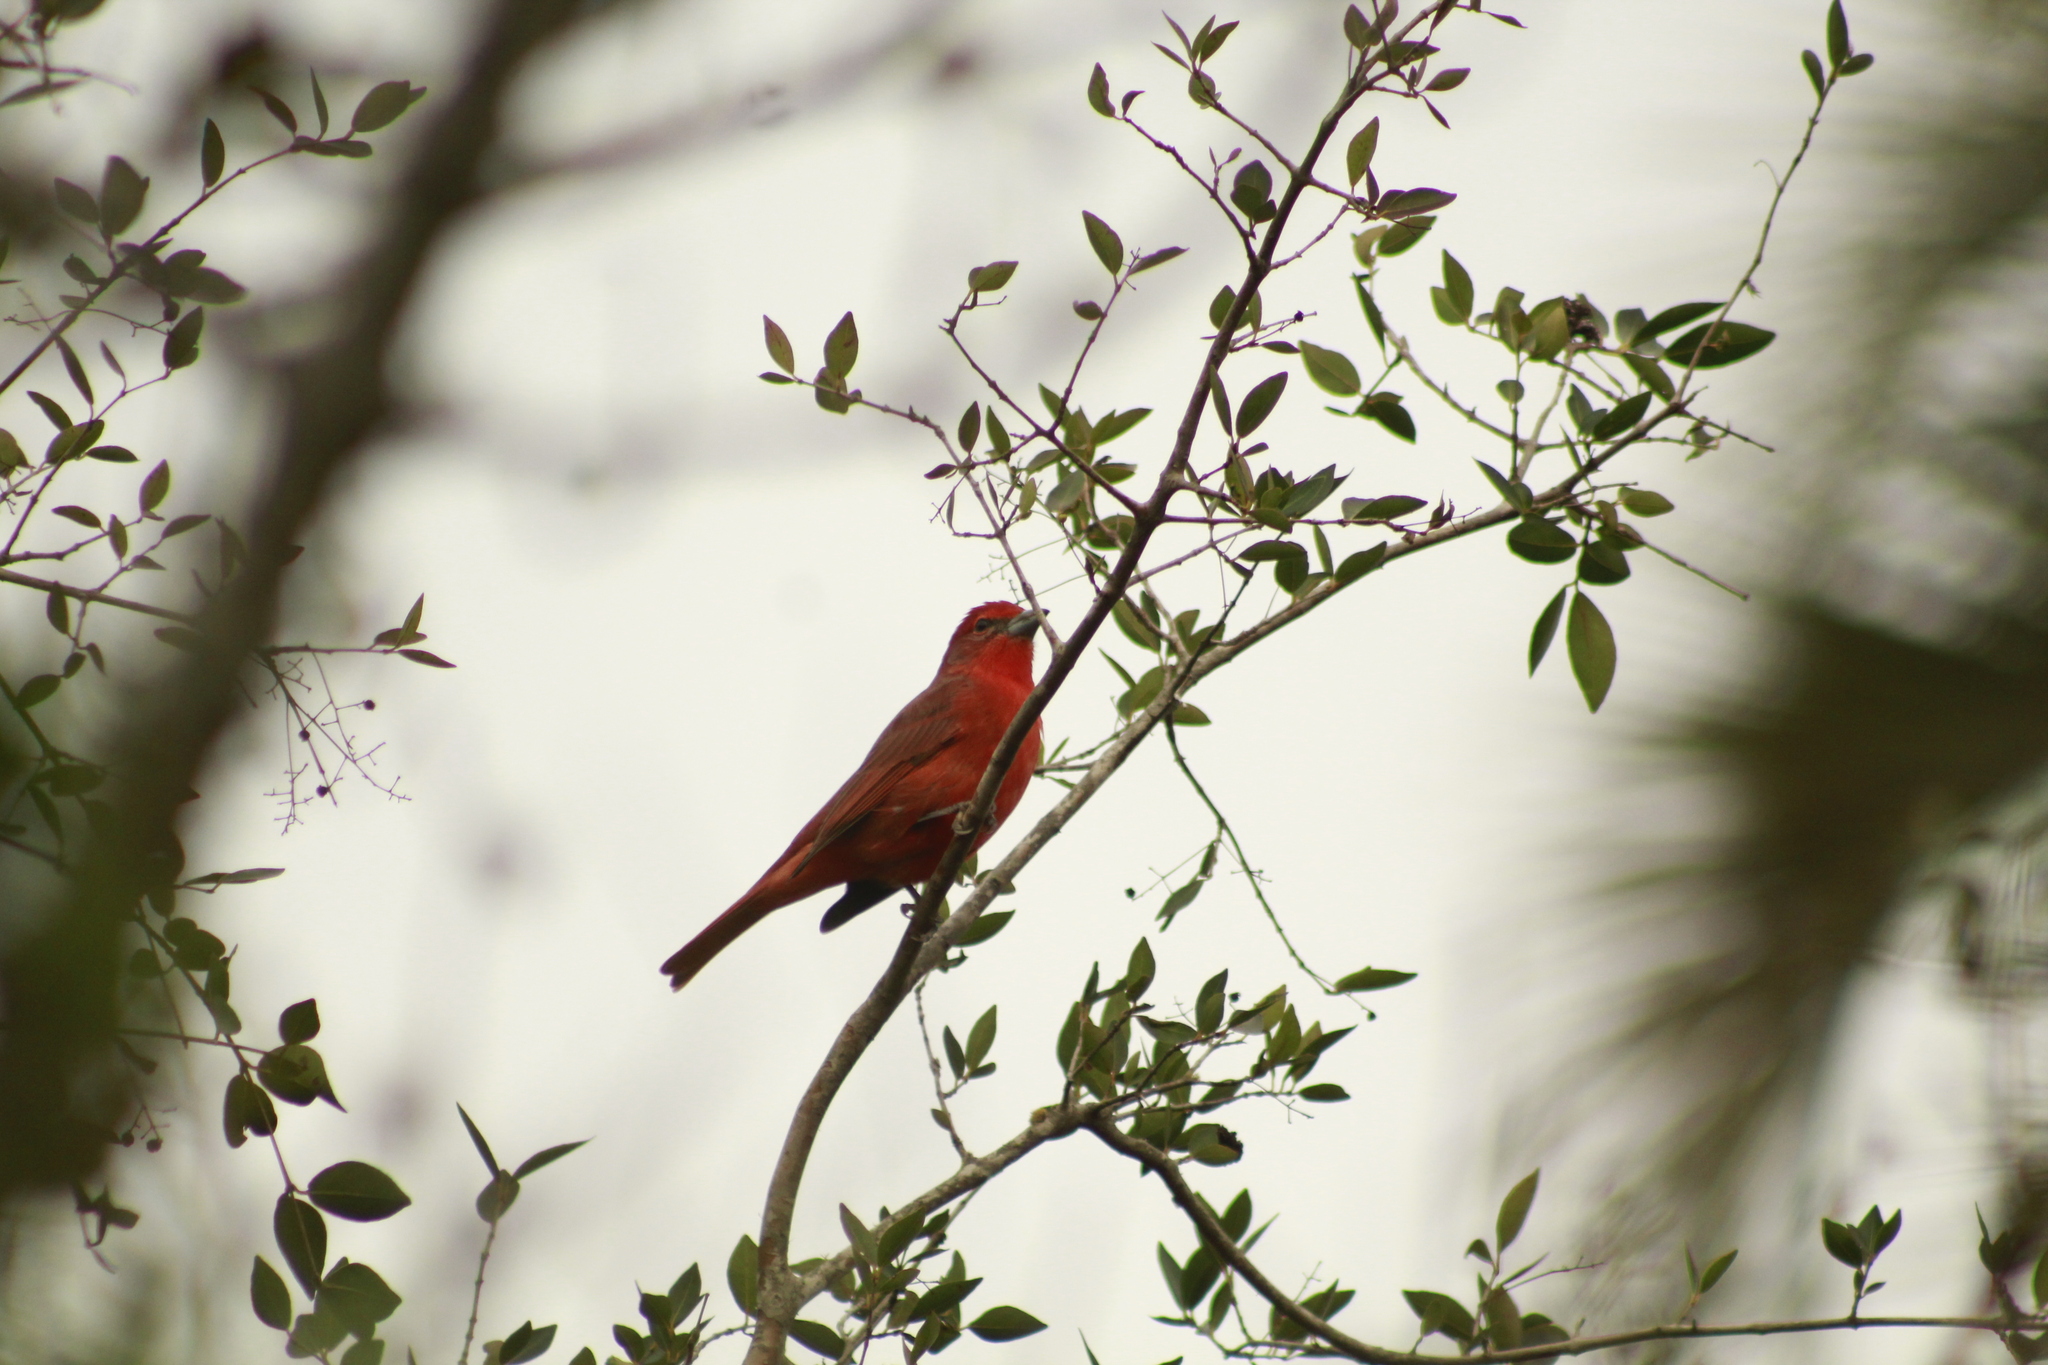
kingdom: Animalia
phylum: Chordata
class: Aves
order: Passeriformes
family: Cardinalidae
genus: Piranga
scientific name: Piranga flava
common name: Red tanager
